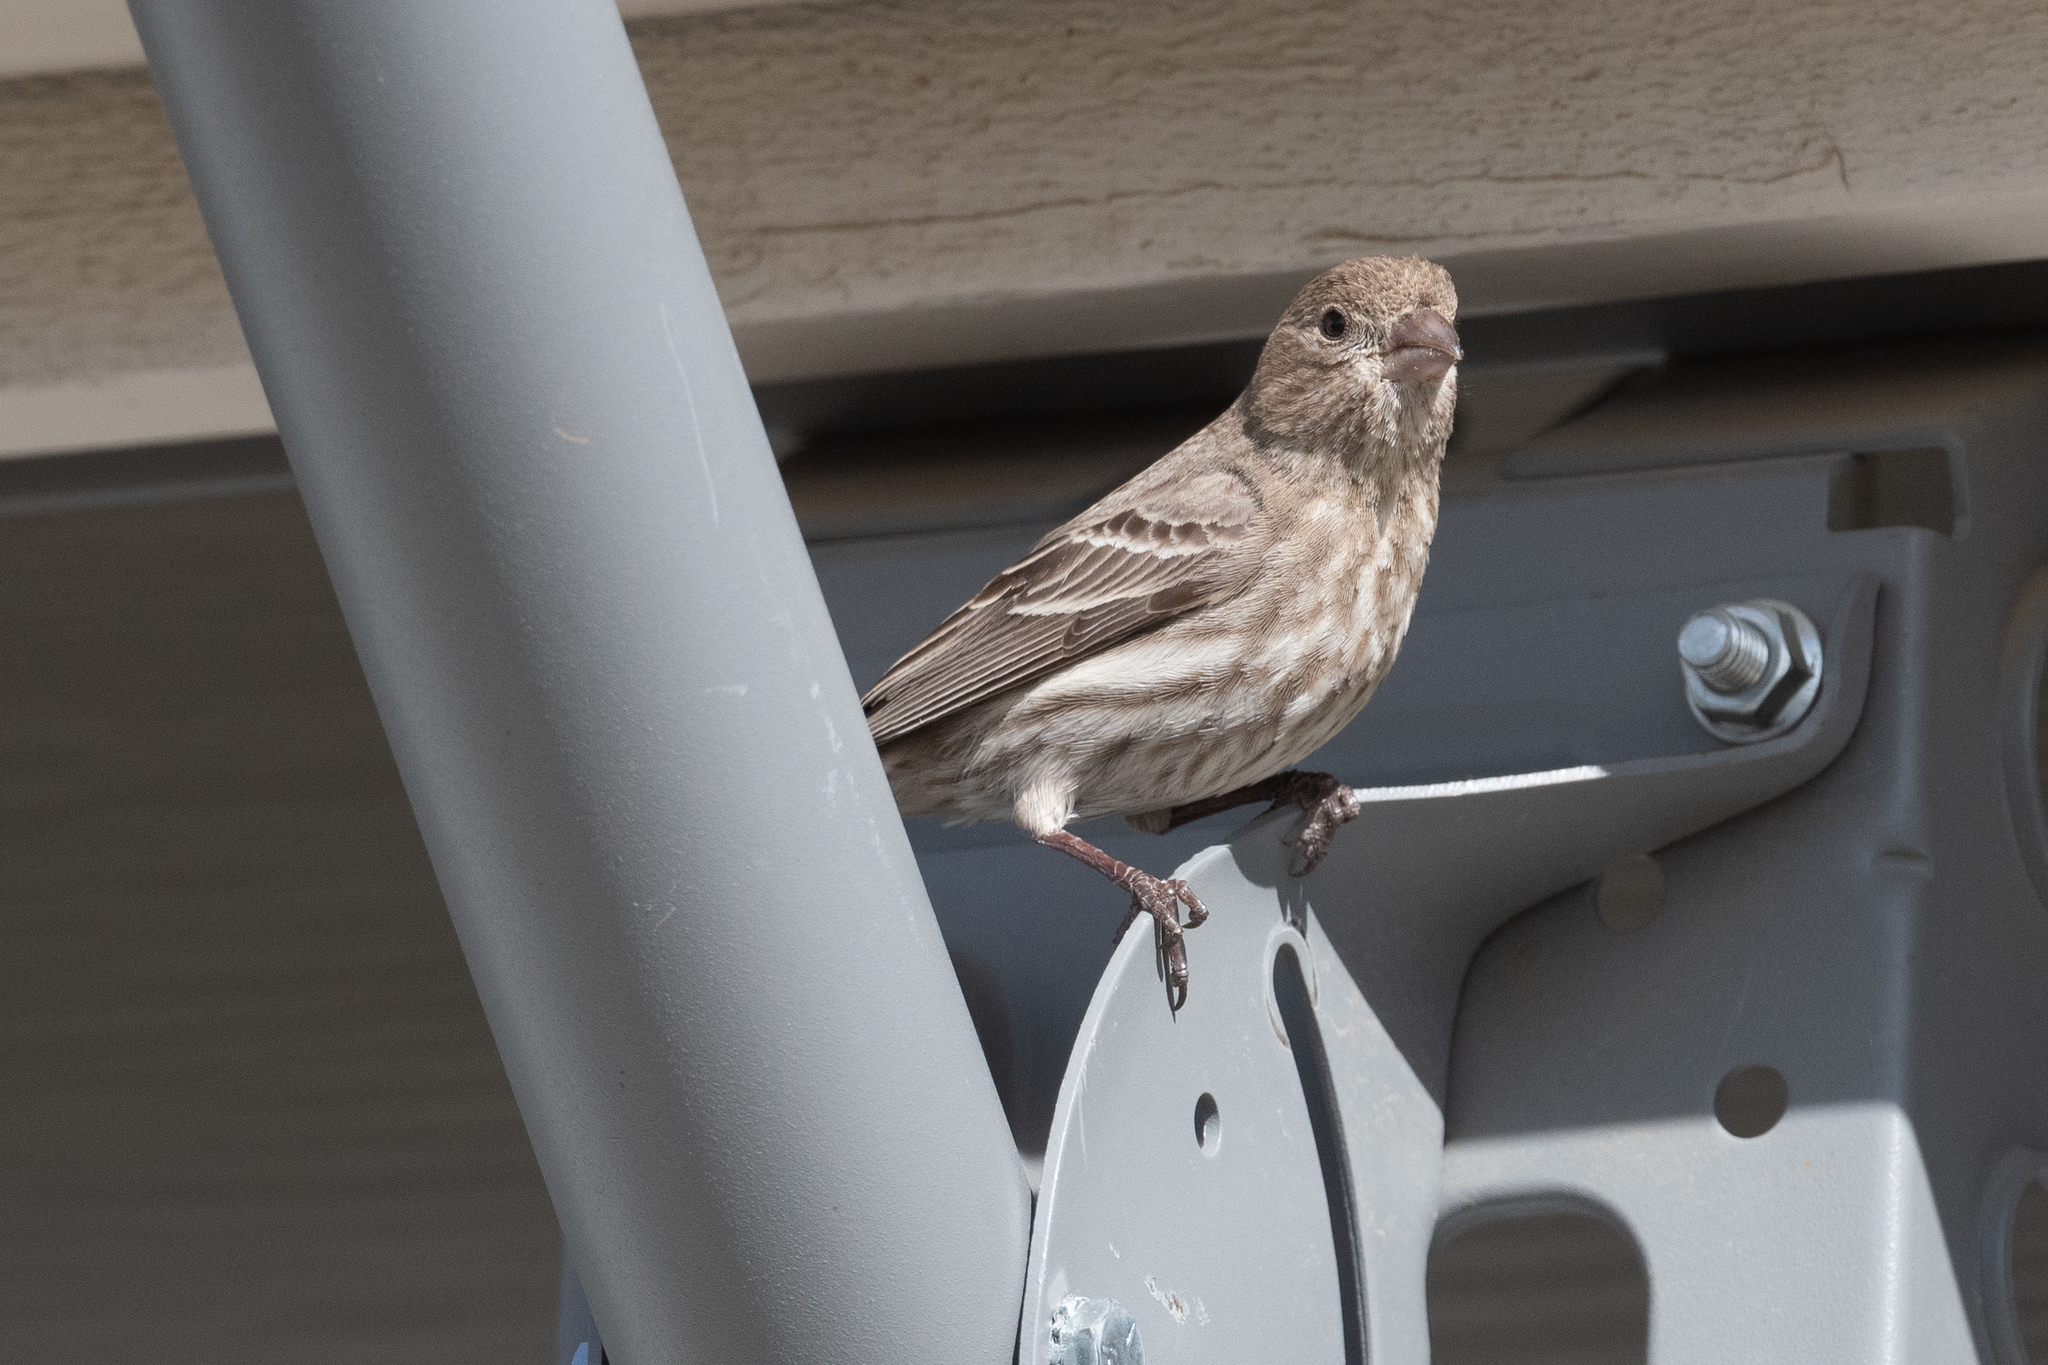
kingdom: Animalia
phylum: Chordata
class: Aves
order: Passeriformes
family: Fringillidae
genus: Haemorhous
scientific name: Haemorhous mexicanus
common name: House finch
